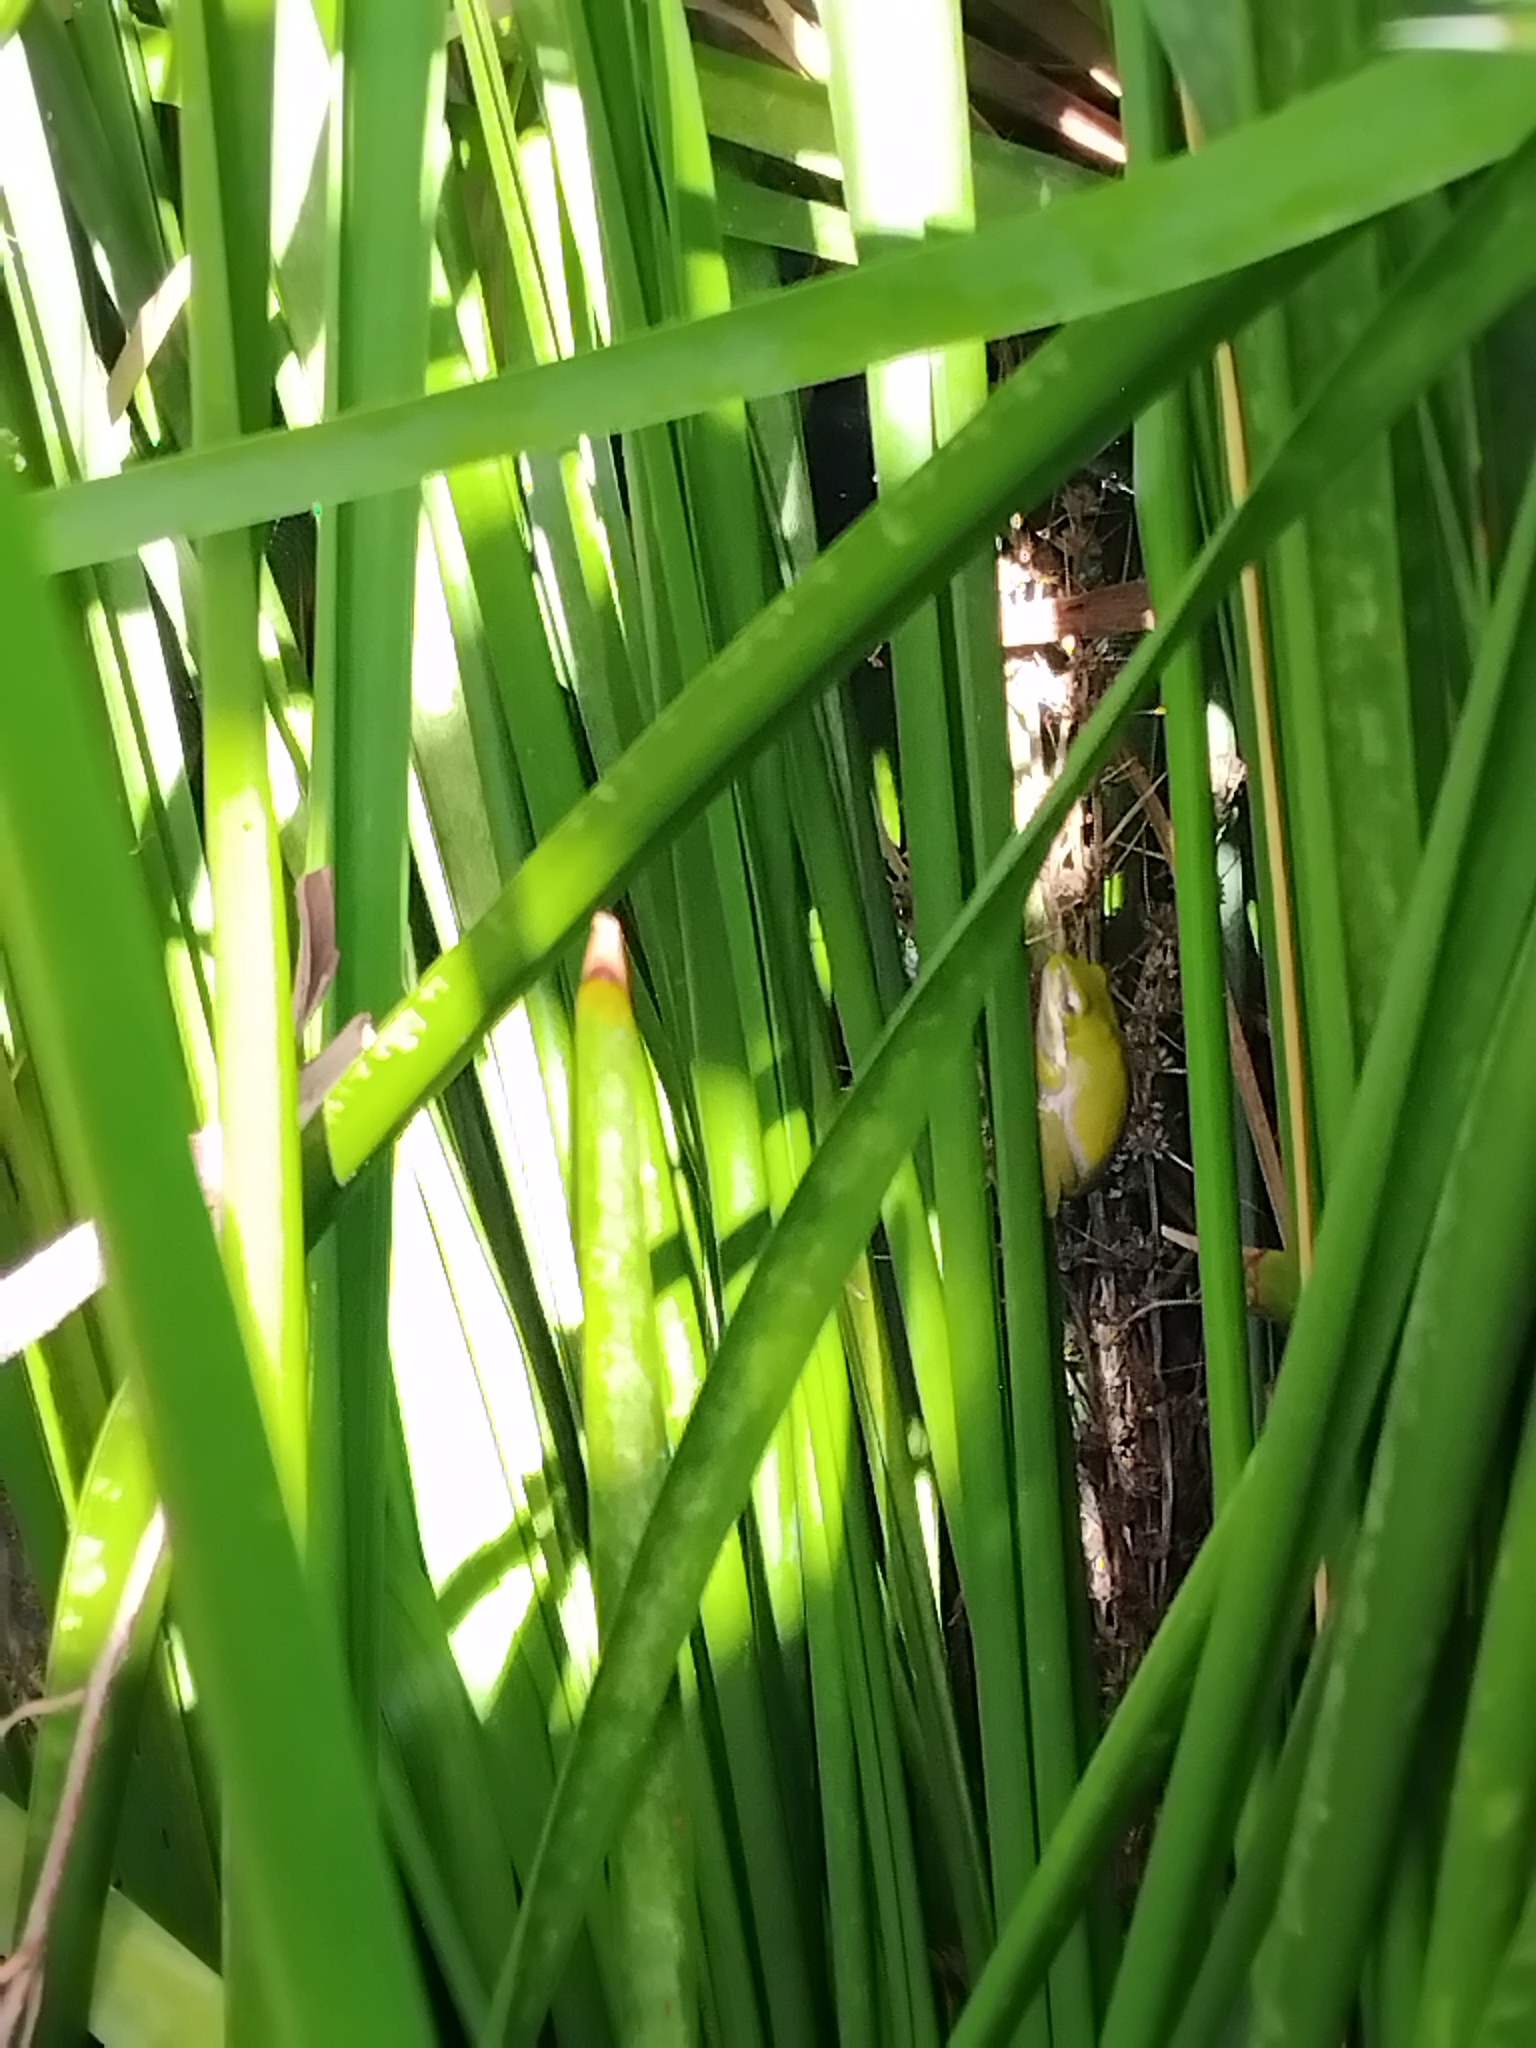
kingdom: Animalia
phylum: Chordata
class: Amphibia
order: Anura
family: Pelodryadidae
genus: Litoria
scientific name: Litoria fallax
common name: Eastern dwarf treefrog
